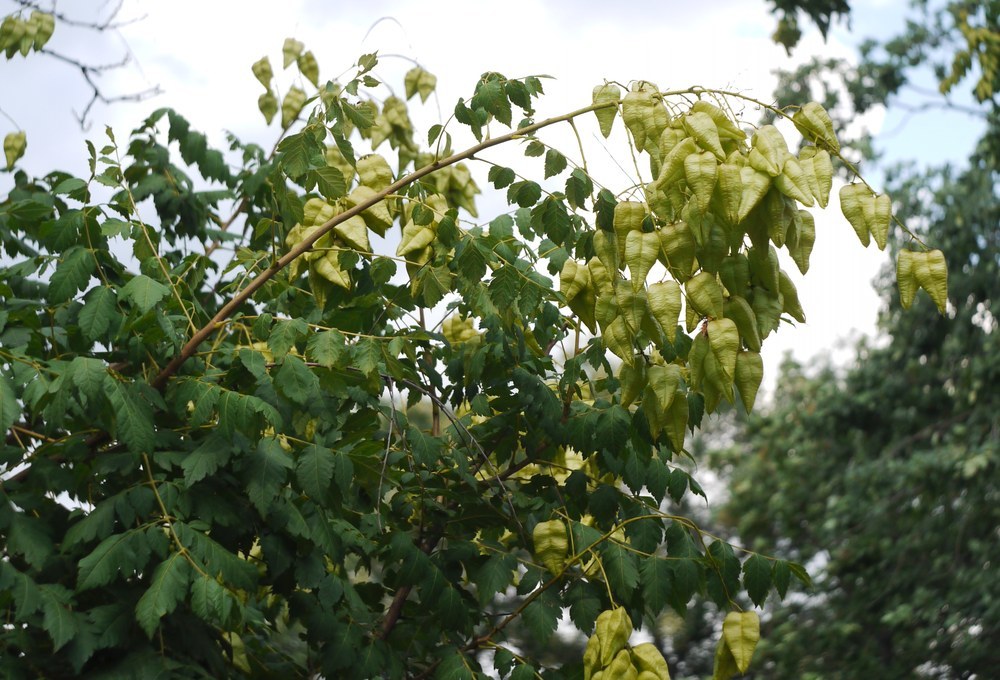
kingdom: Plantae
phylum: Tracheophyta
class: Magnoliopsida
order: Sapindales
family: Sapindaceae
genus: Koelreuteria
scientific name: Koelreuteria paniculata
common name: Pride-of-india
